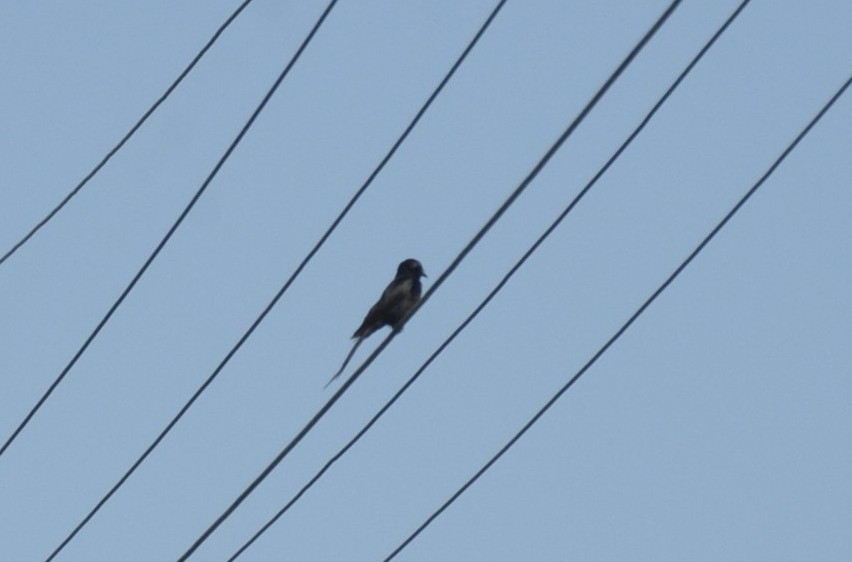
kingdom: Animalia
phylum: Chordata
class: Aves
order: Passeriformes
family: Dicruridae
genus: Dicrurus
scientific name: Dicrurus macrocercus
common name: Black drongo
